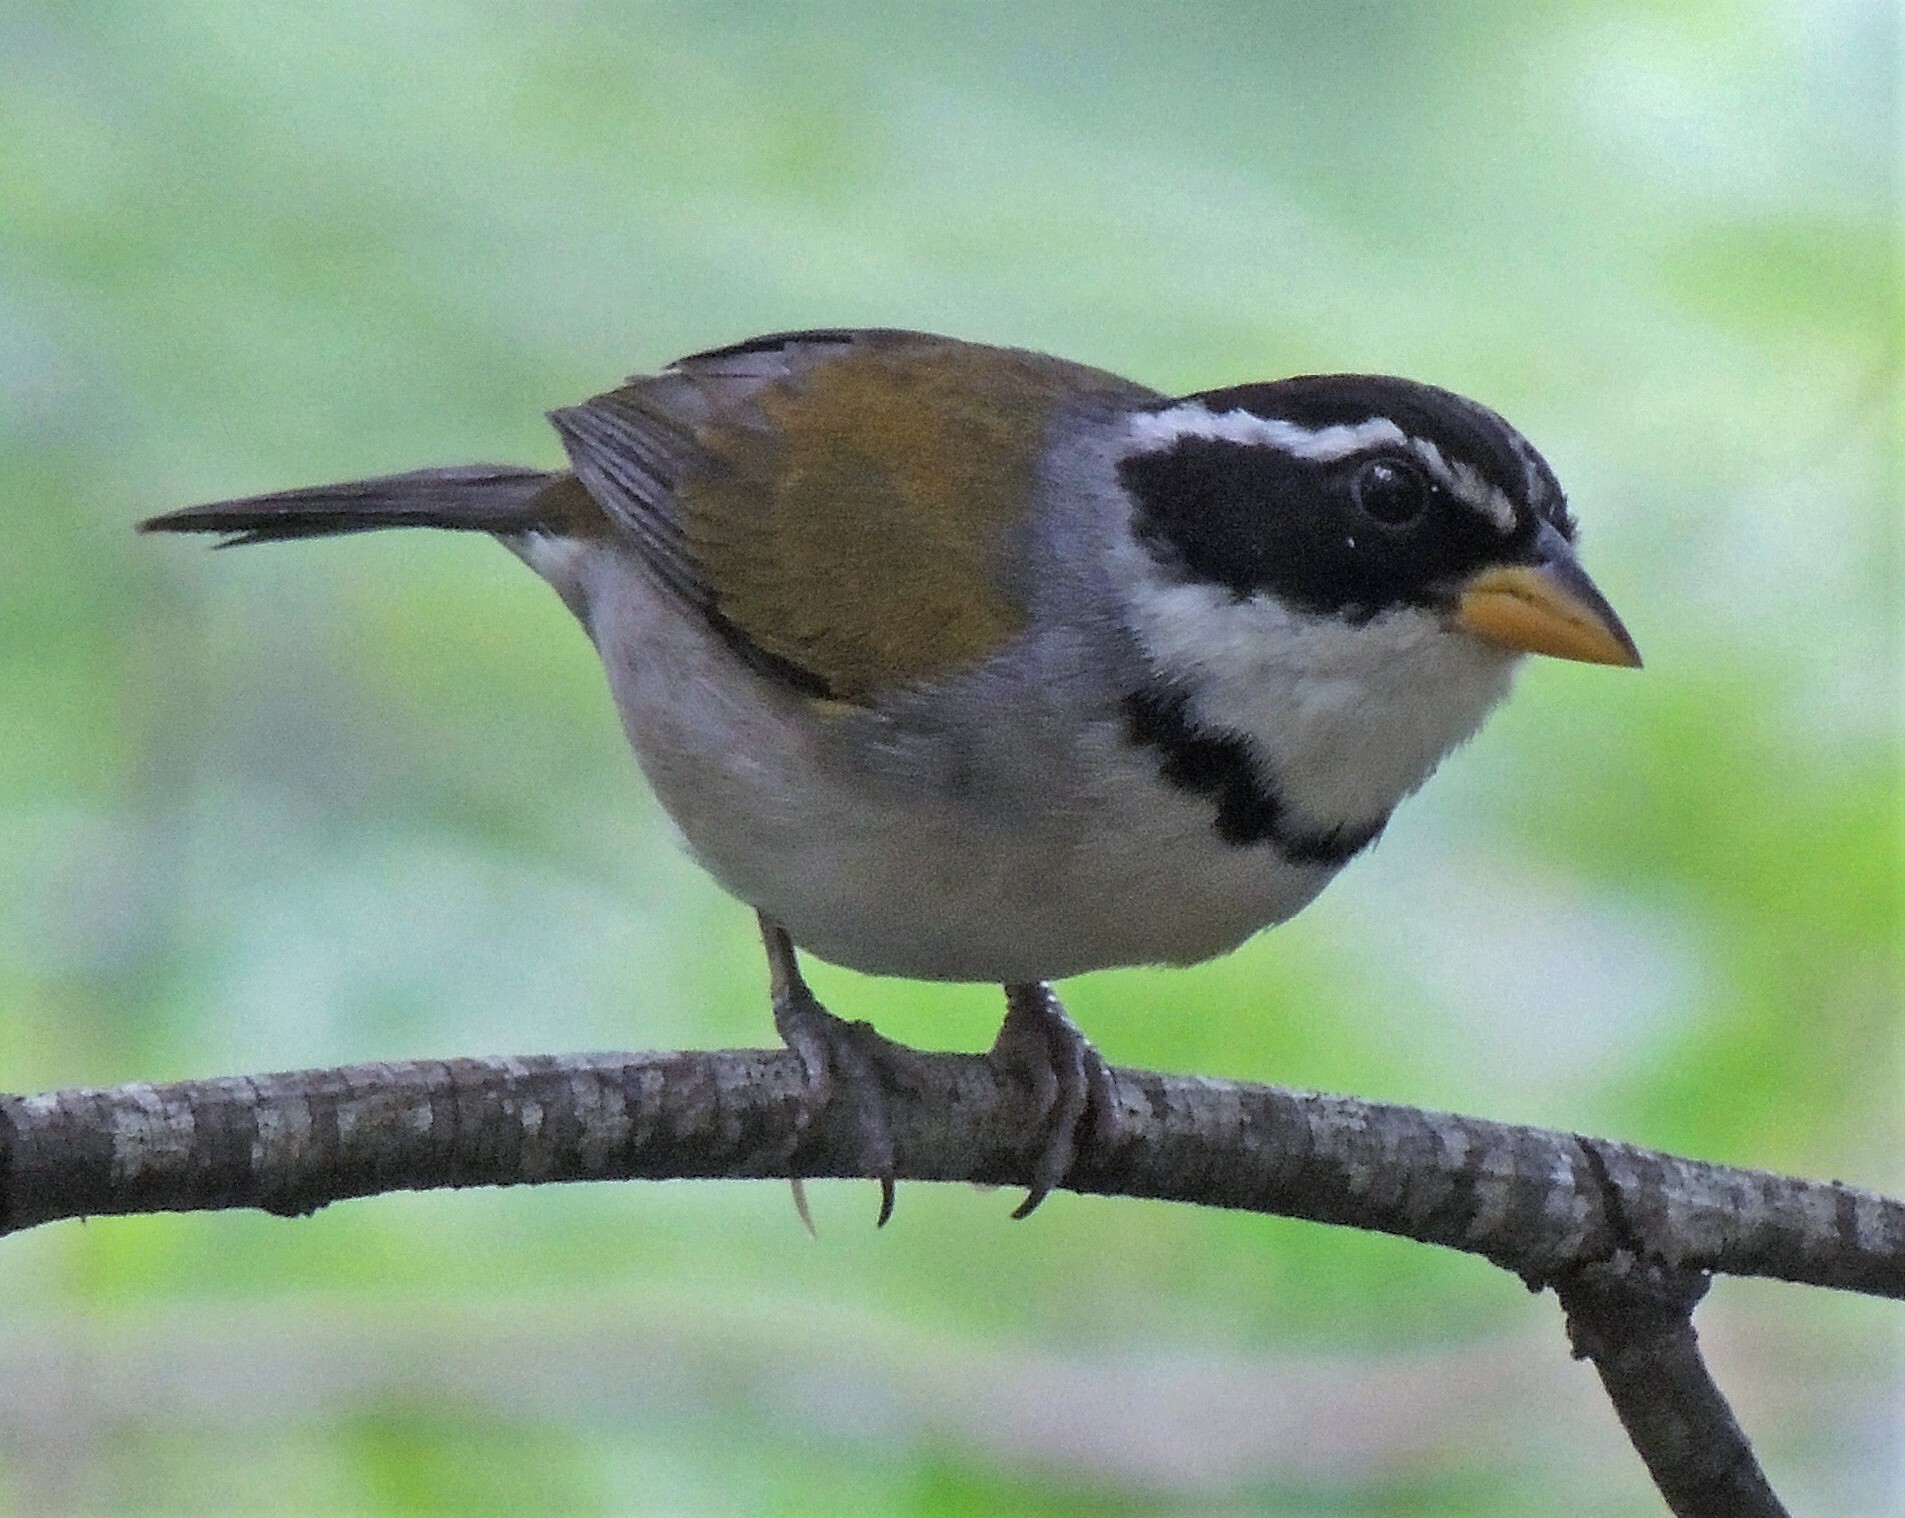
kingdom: Animalia
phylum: Chordata
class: Aves
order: Passeriformes
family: Passerellidae
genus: Arremon
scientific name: Arremon dorbignii
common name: Moss-backed sparrow
